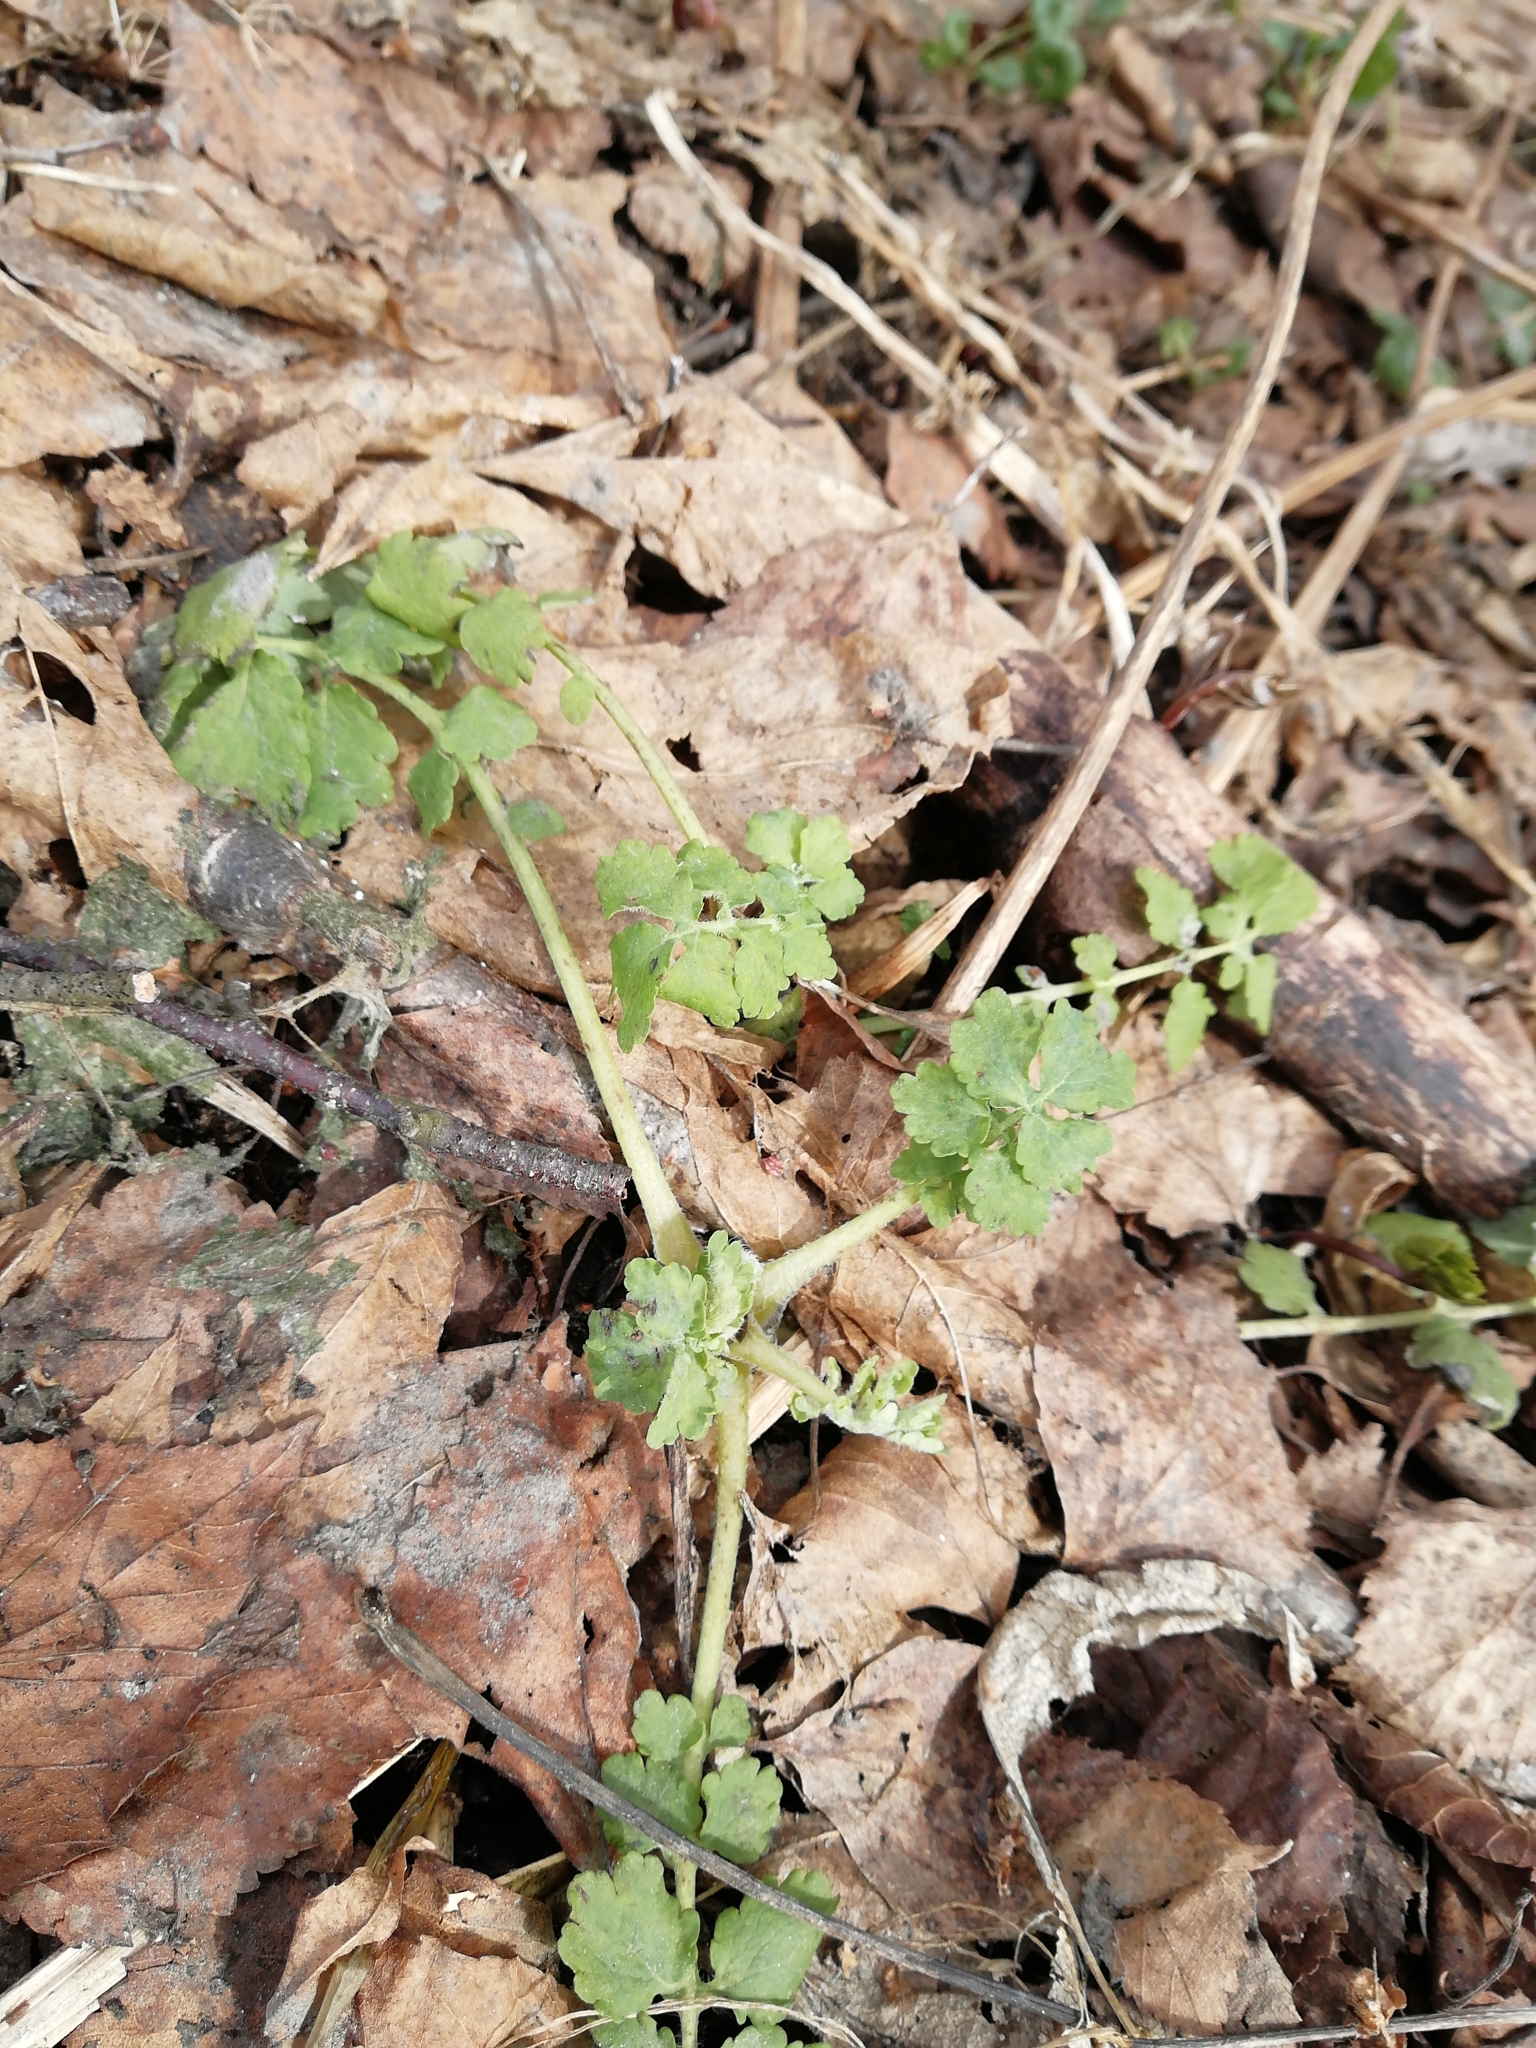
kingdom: Plantae
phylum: Tracheophyta
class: Magnoliopsida
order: Ranunculales
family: Papaveraceae
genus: Chelidonium
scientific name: Chelidonium majus
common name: Greater celandine
